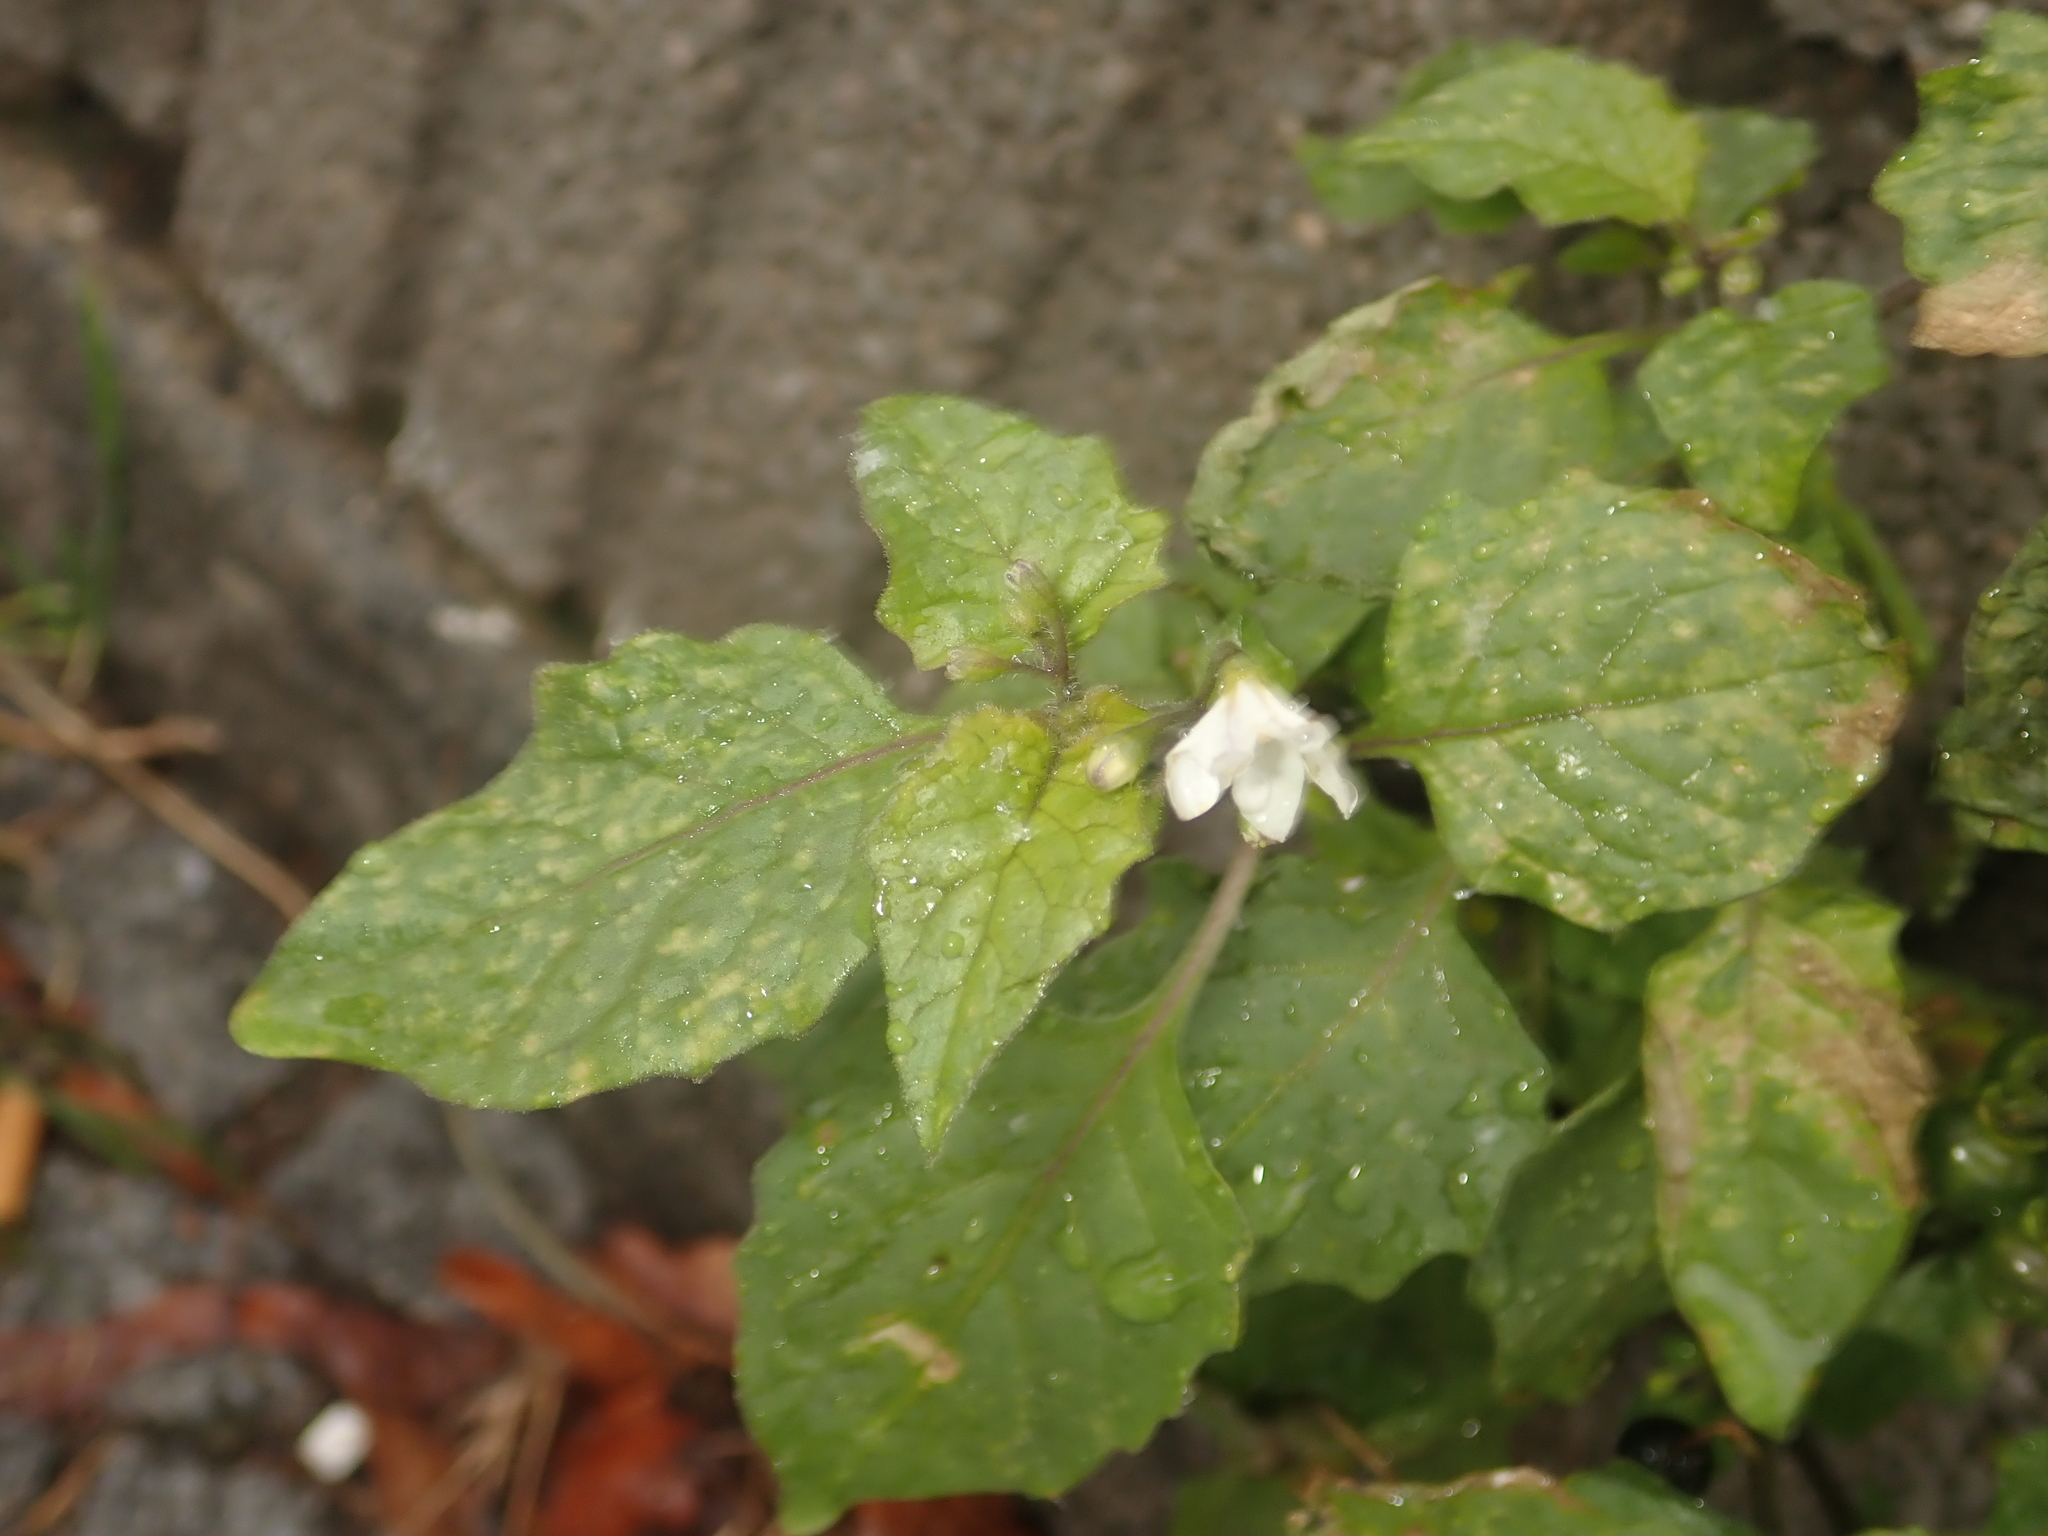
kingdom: Plantae
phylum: Tracheophyta
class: Magnoliopsida
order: Solanales
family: Solanaceae
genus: Solanum
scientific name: Solanum nigrum
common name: Black nightshade
